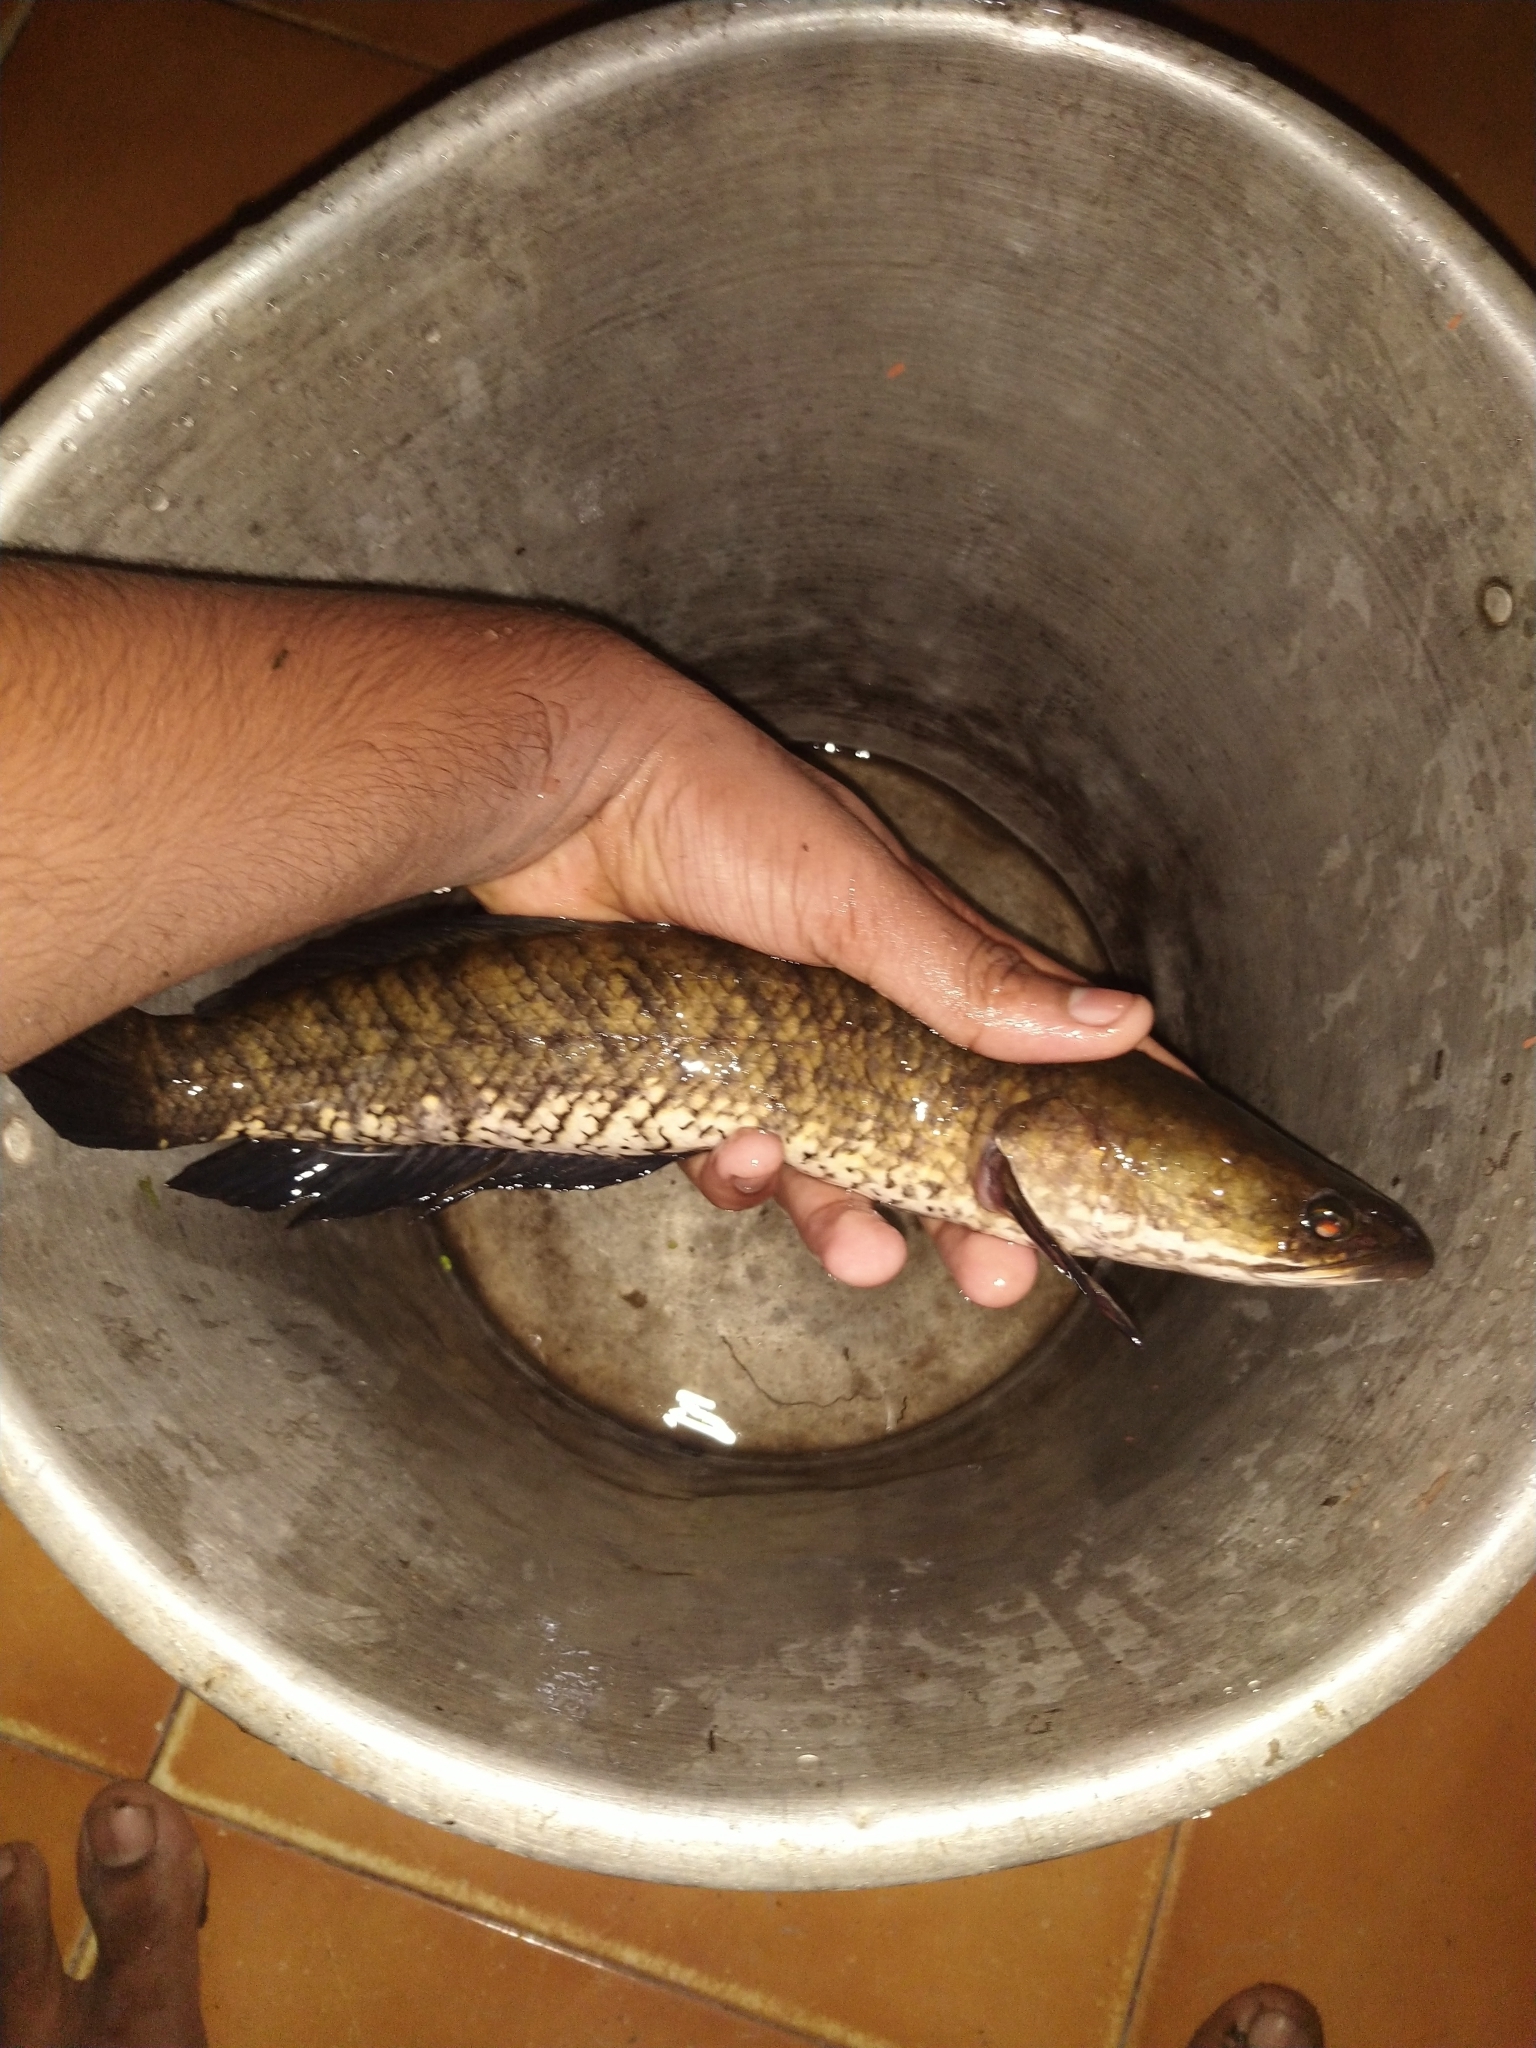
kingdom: Animalia
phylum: Chordata
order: Perciformes
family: Channidae
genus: Channa
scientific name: Channa striata
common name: Striped snakehead
